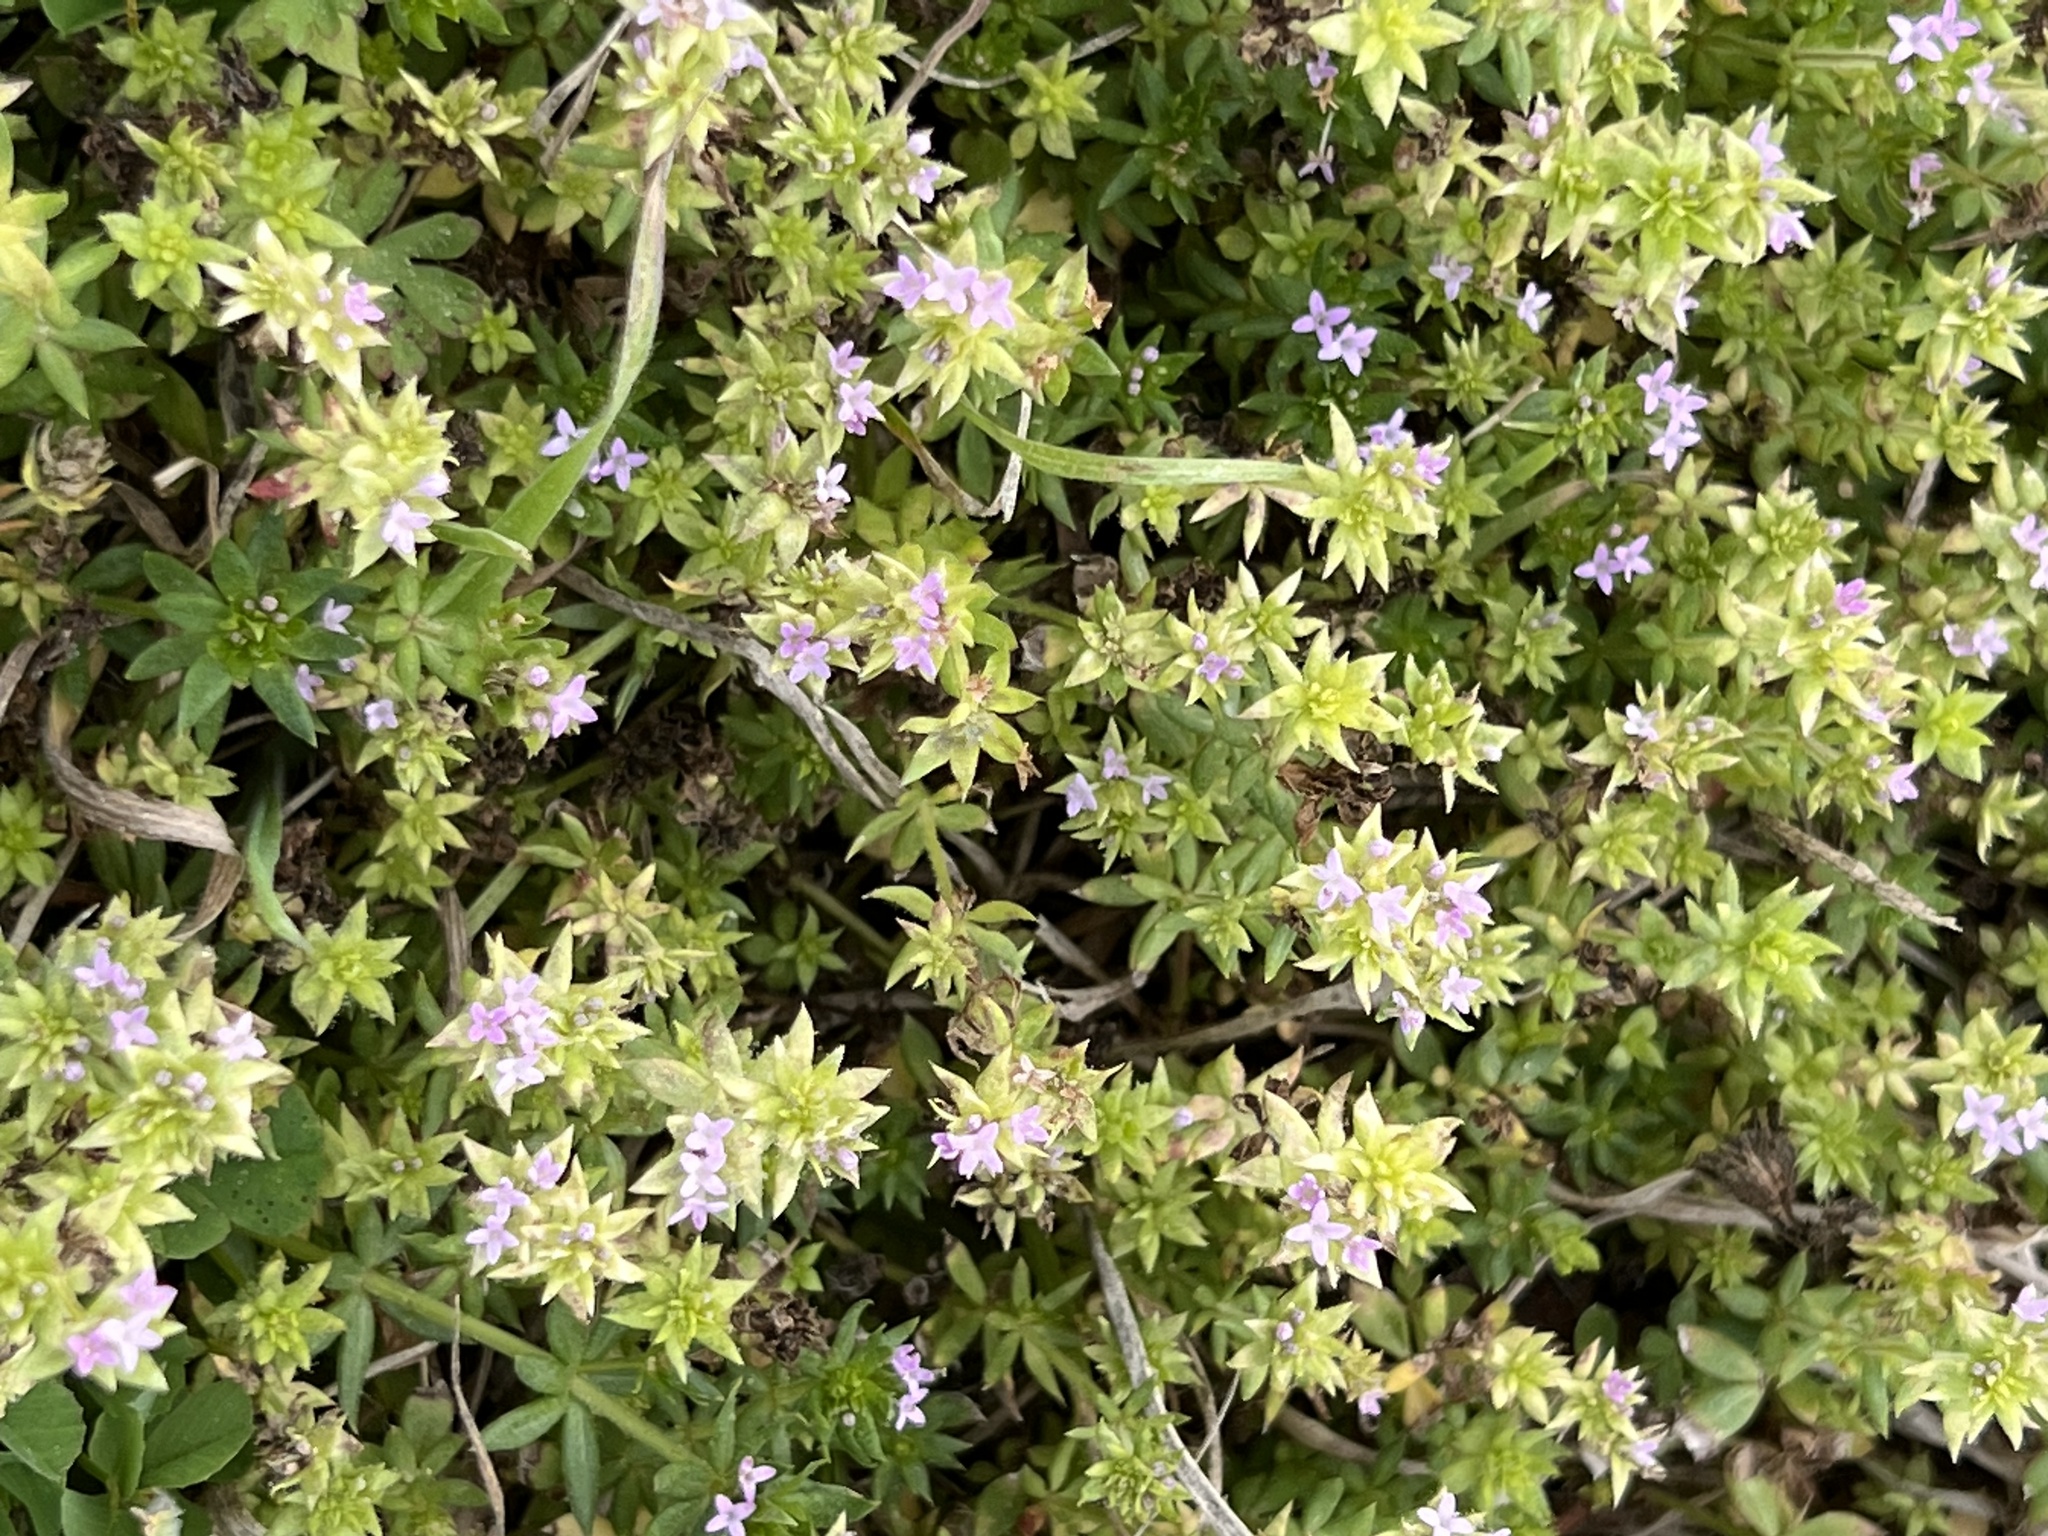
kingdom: Plantae
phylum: Tracheophyta
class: Magnoliopsida
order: Gentianales
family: Rubiaceae
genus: Sherardia
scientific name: Sherardia arvensis
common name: Field madder
